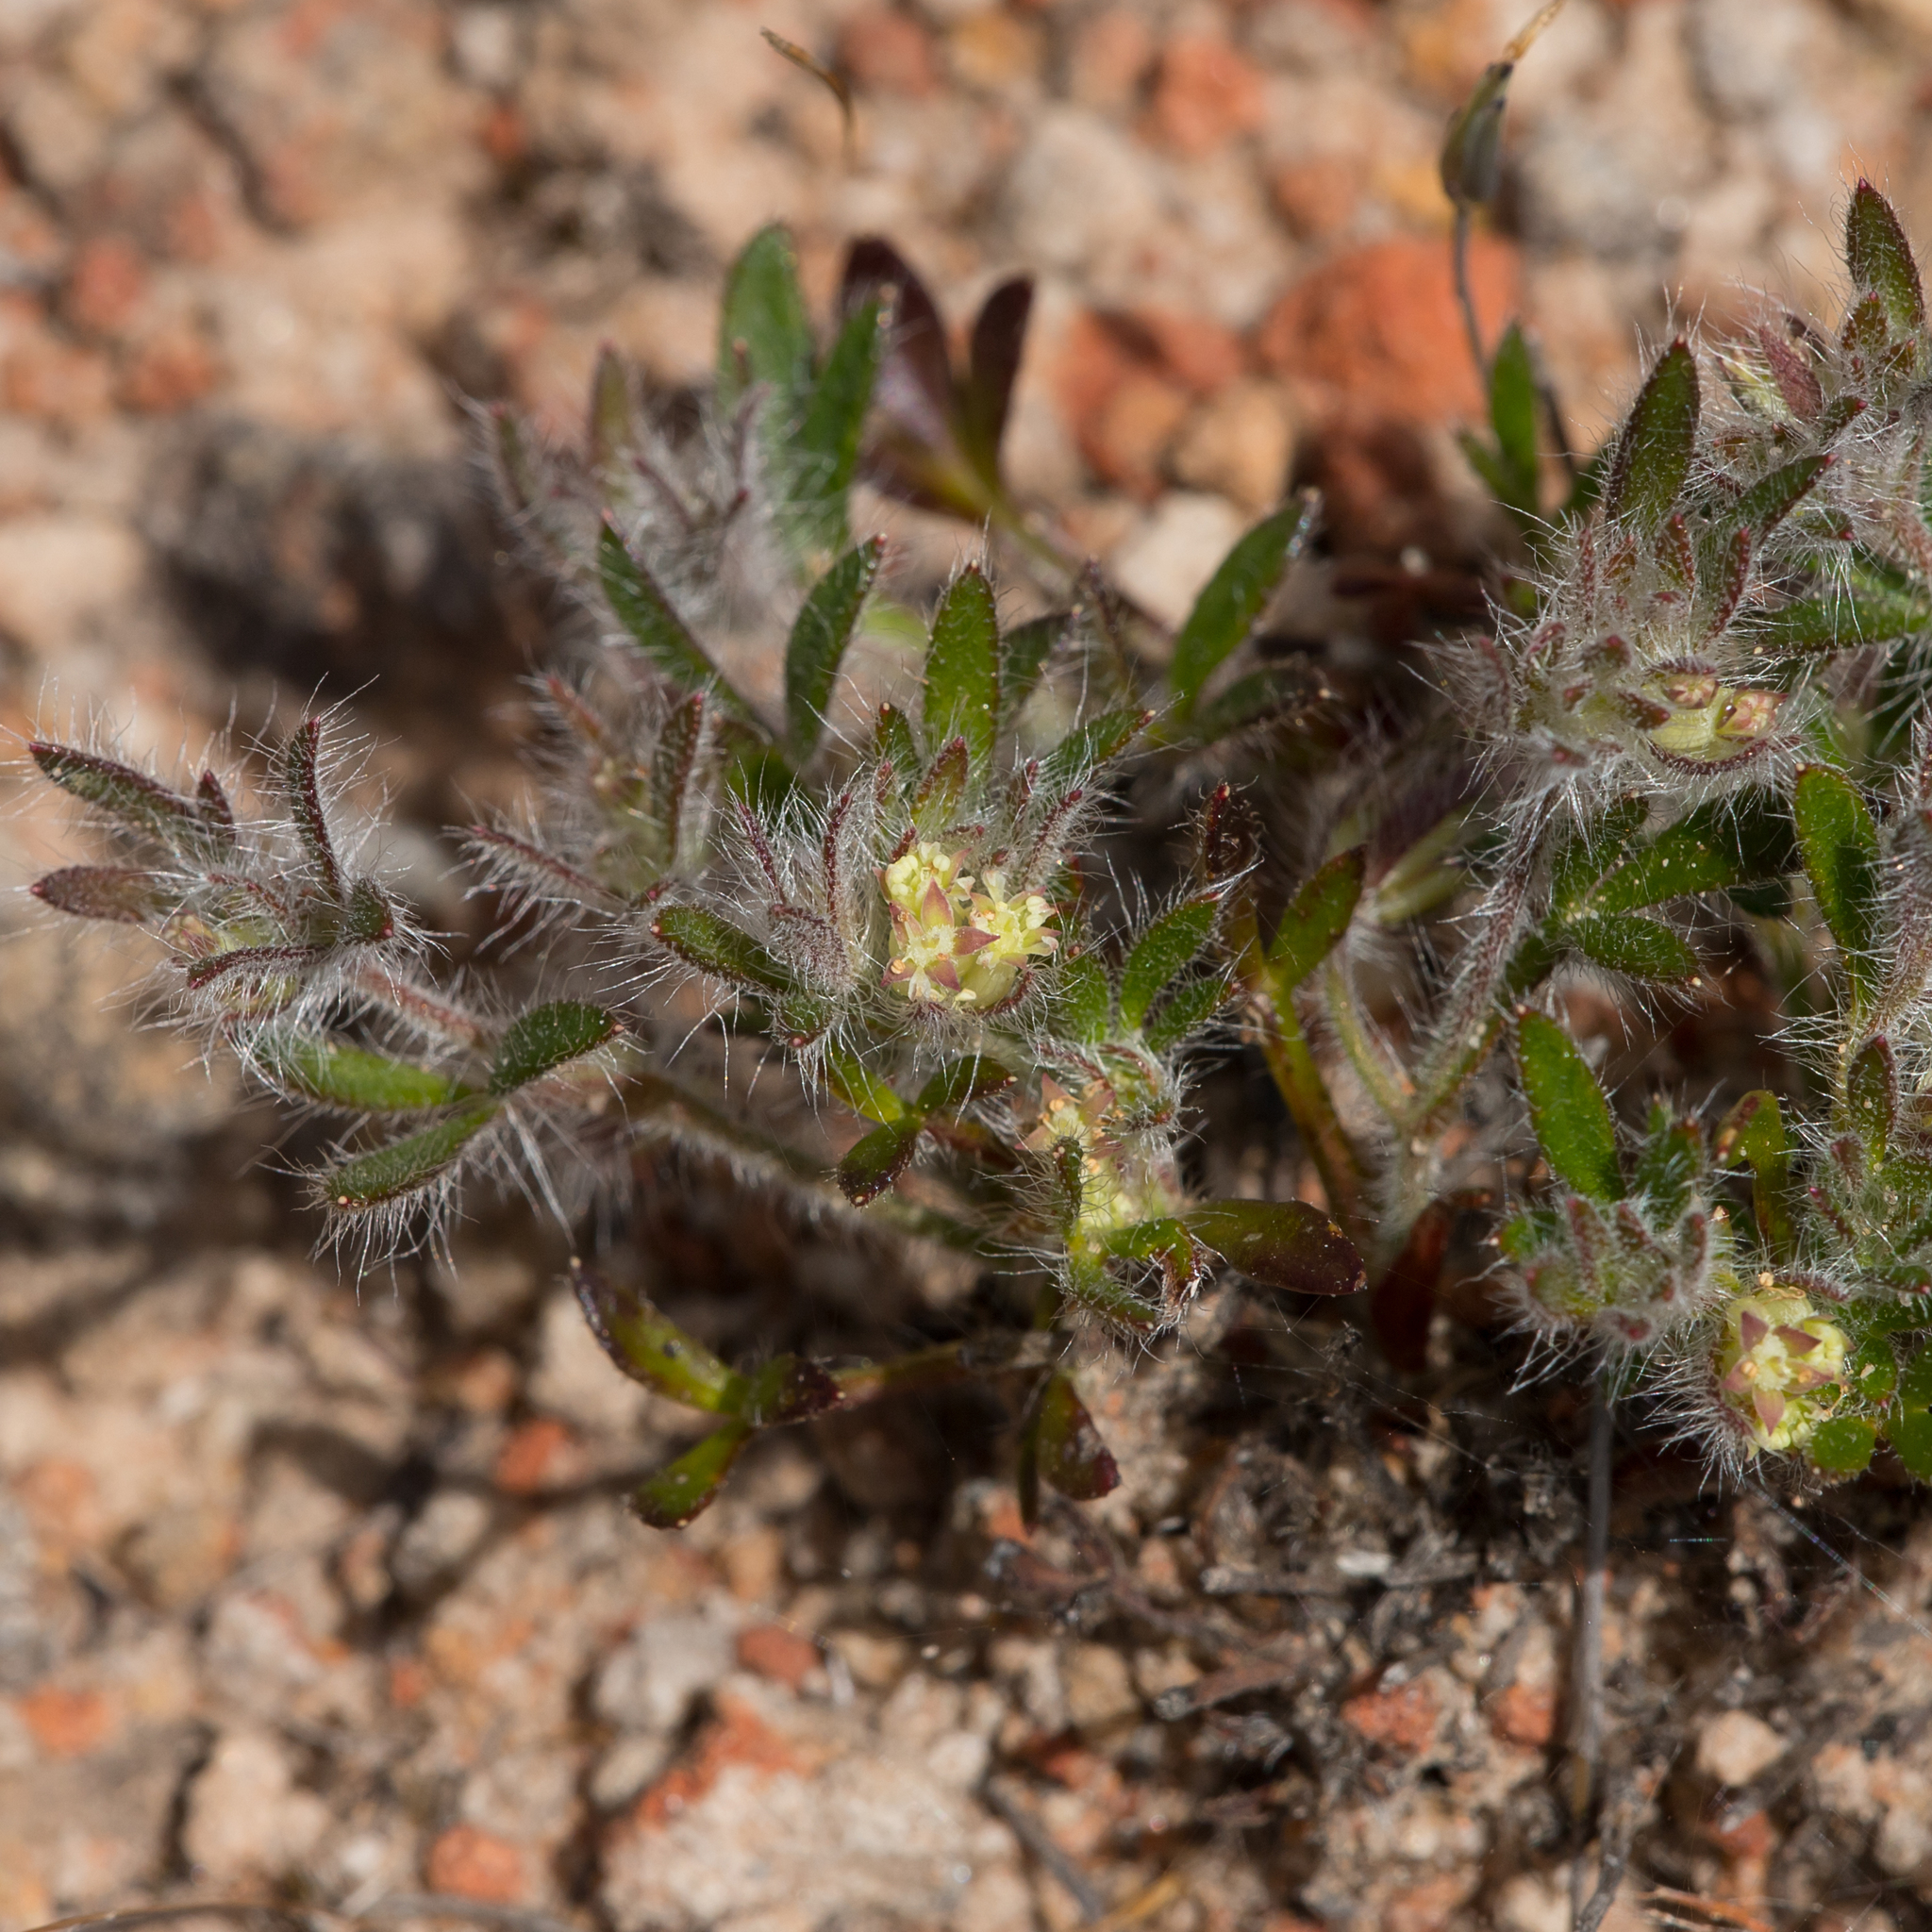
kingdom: Plantae
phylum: Tracheophyta
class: Magnoliopsida
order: Apiales
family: Apiaceae
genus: Xanthosia
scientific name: Xanthosia huegelii
